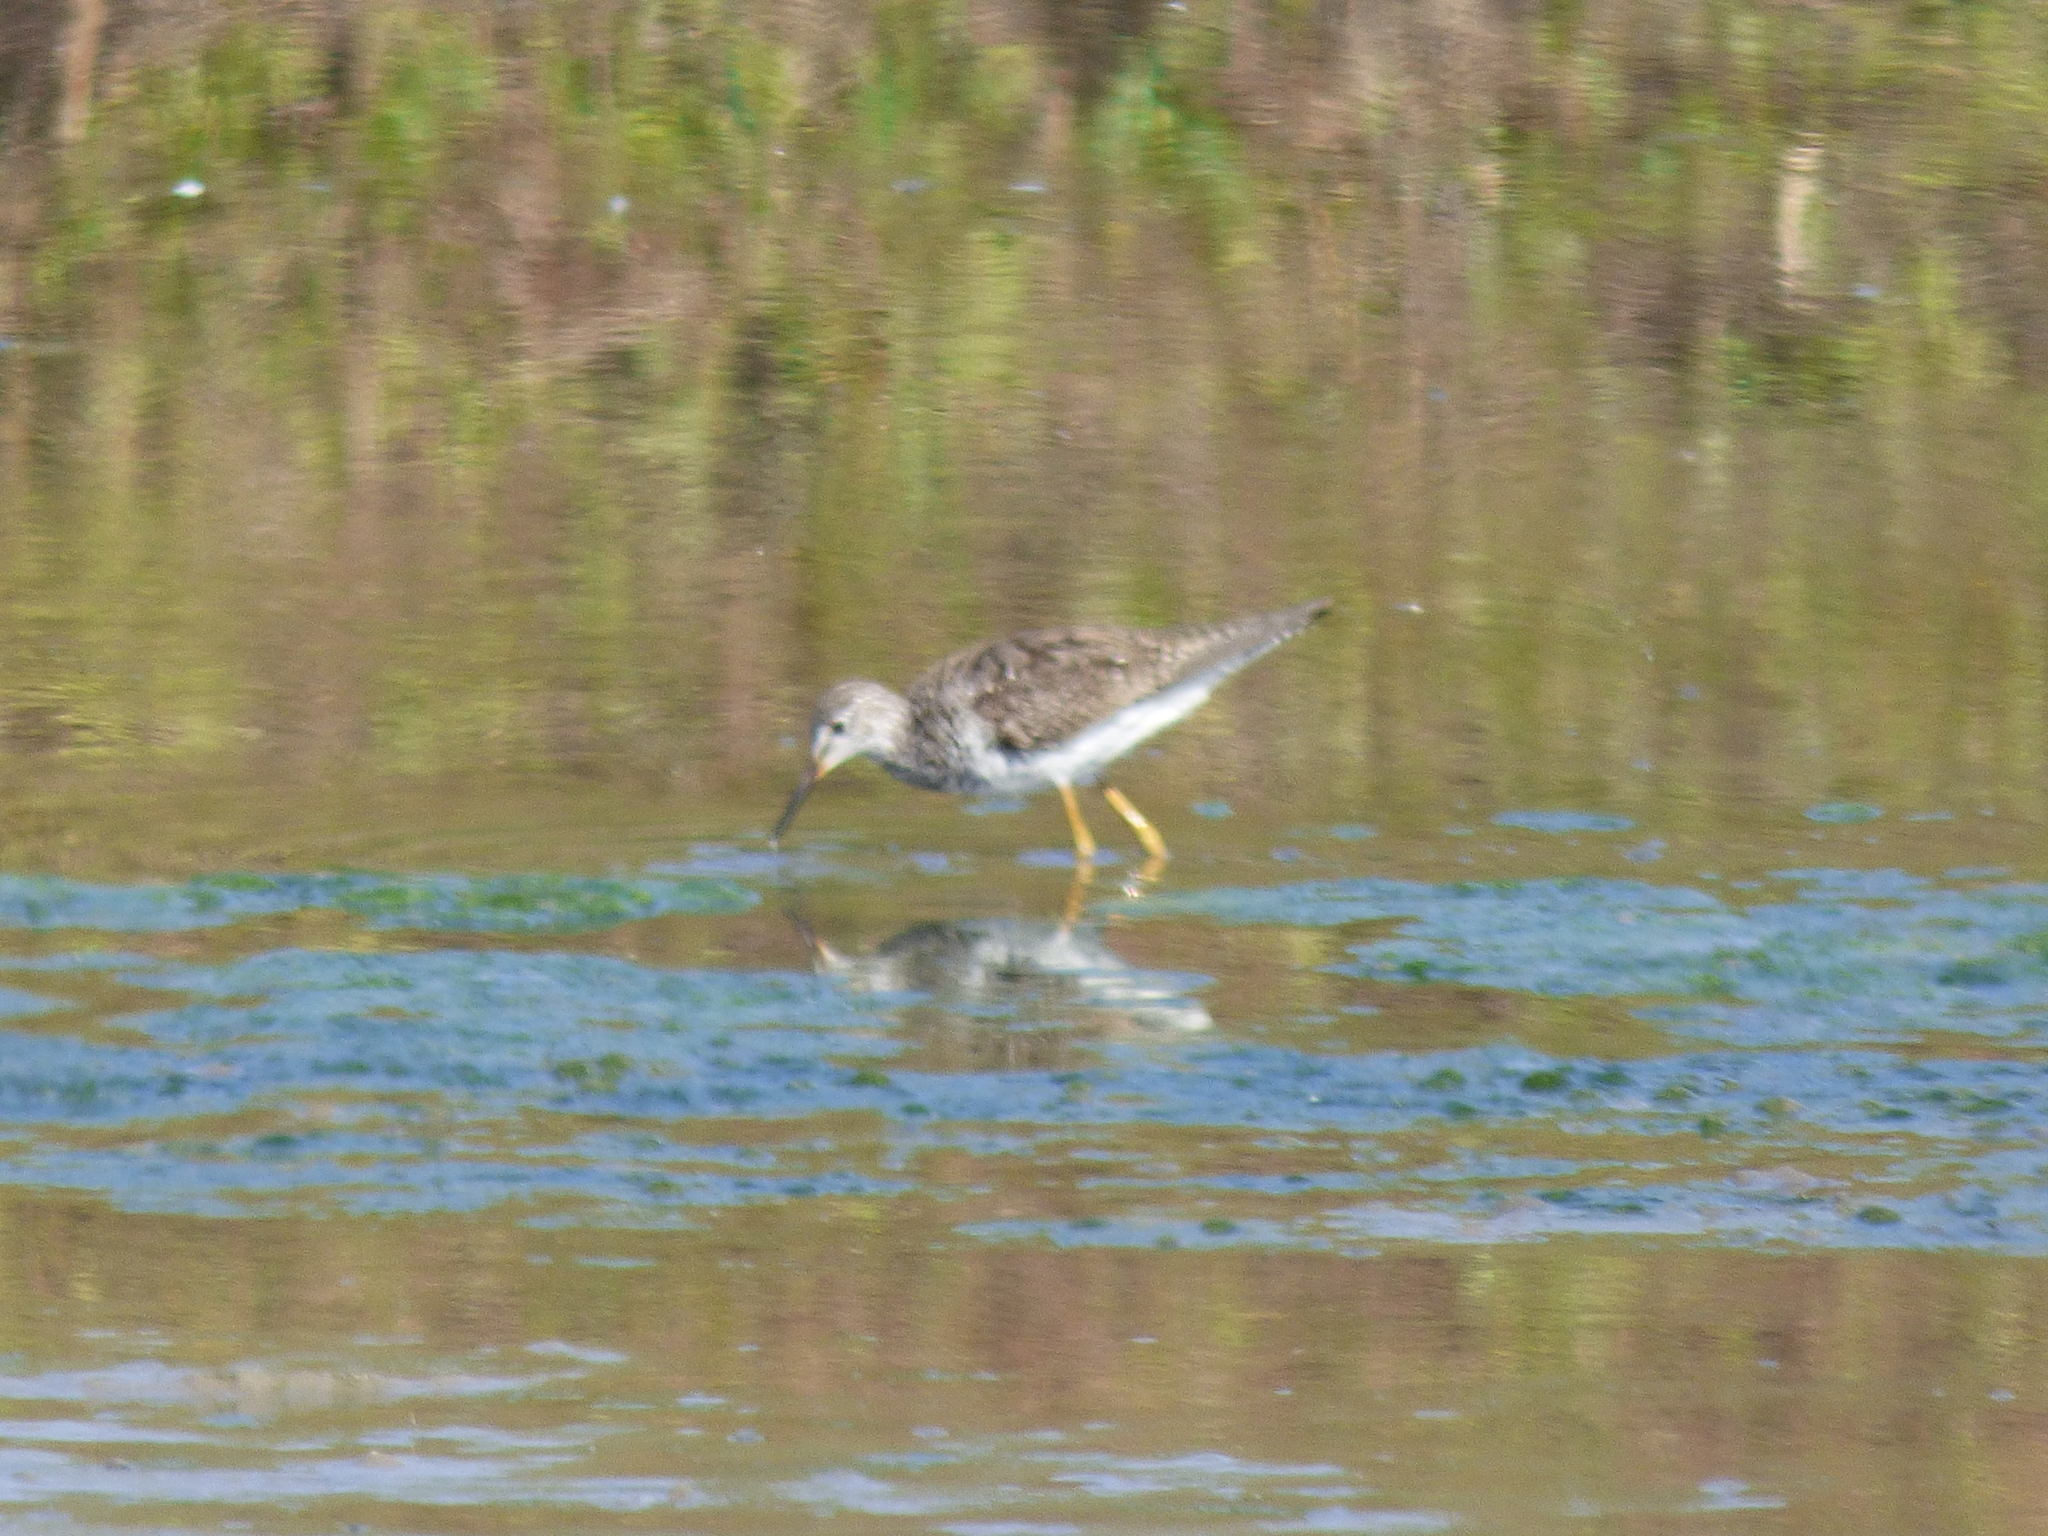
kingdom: Animalia
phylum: Chordata
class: Aves
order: Charadriiformes
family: Scolopacidae
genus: Tringa
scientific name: Tringa flavipes
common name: Lesser yellowlegs
